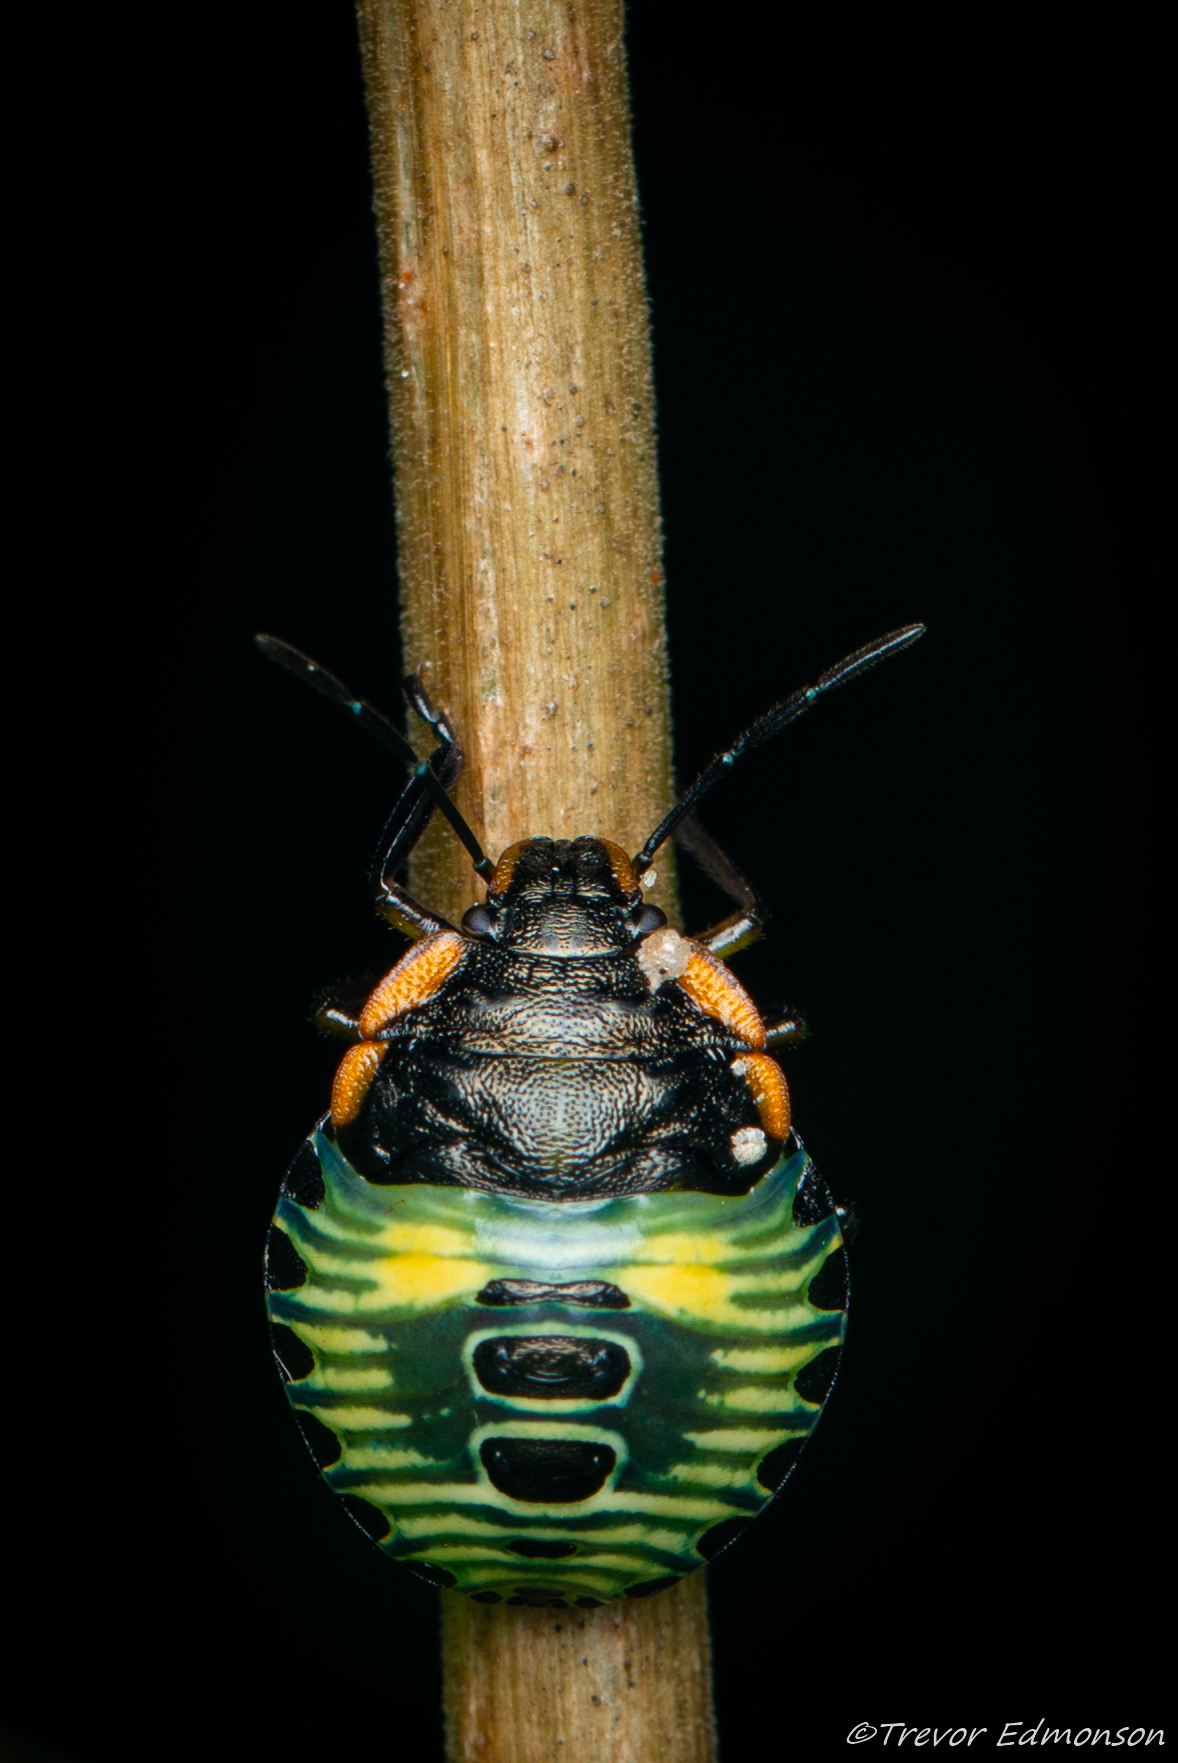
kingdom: Animalia
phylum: Arthropoda
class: Insecta
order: Hemiptera
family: Pentatomidae
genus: Chinavia
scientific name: Chinavia hilaris
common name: Green stink bug
